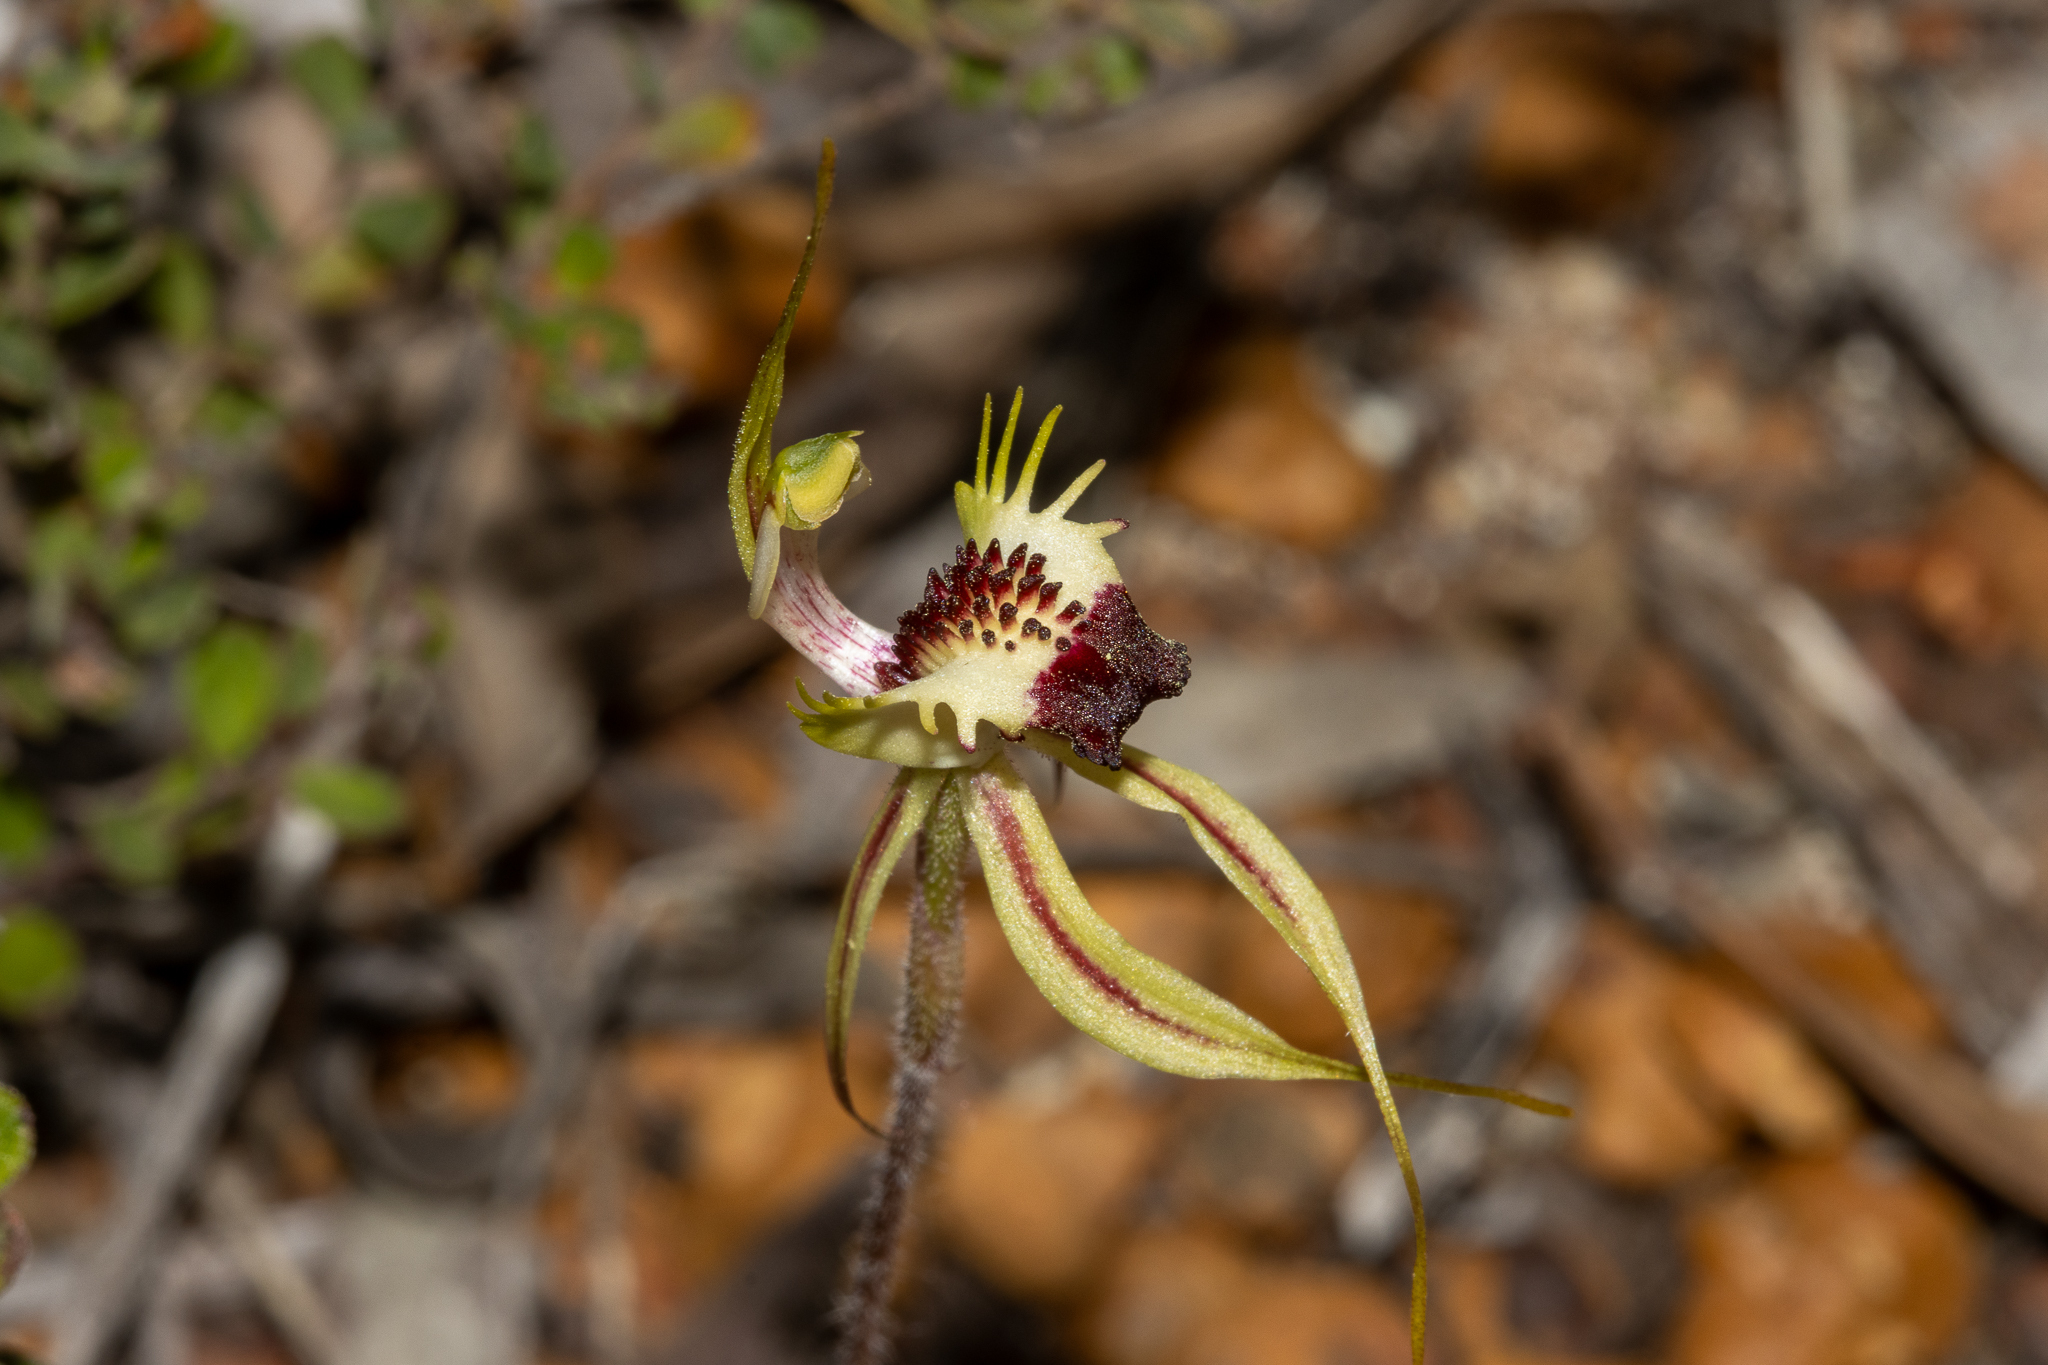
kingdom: Plantae
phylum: Tracheophyta
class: Liliopsida
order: Asparagales
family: Orchidaceae
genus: Caladenia
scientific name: Caladenia stricta
